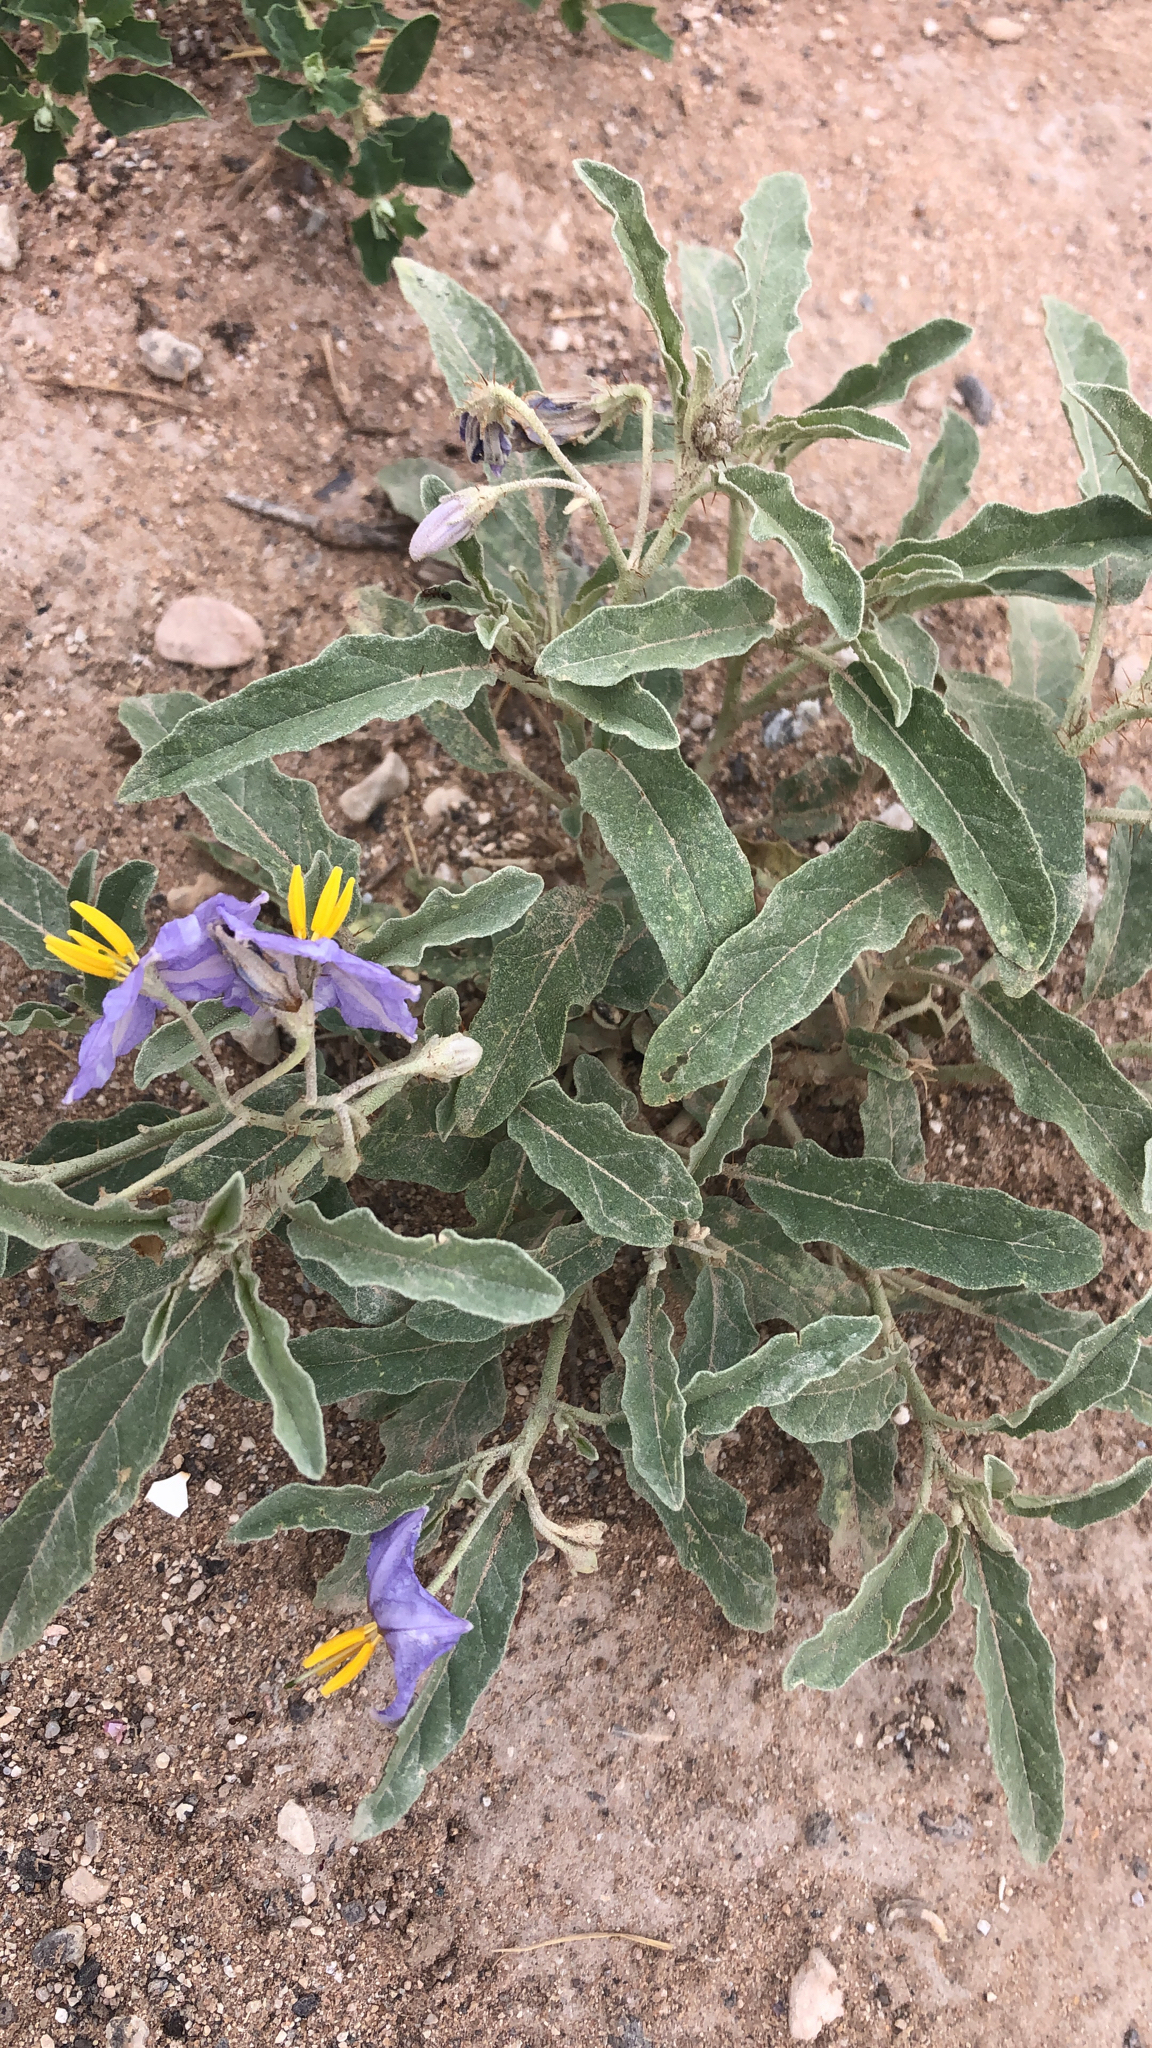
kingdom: Plantae
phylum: Tracheophyta
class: Magnoliopsida
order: Solanales
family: Solanaceae
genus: Solanum
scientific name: Solanum elaeagnifolium
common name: Silverleaf nightshade
